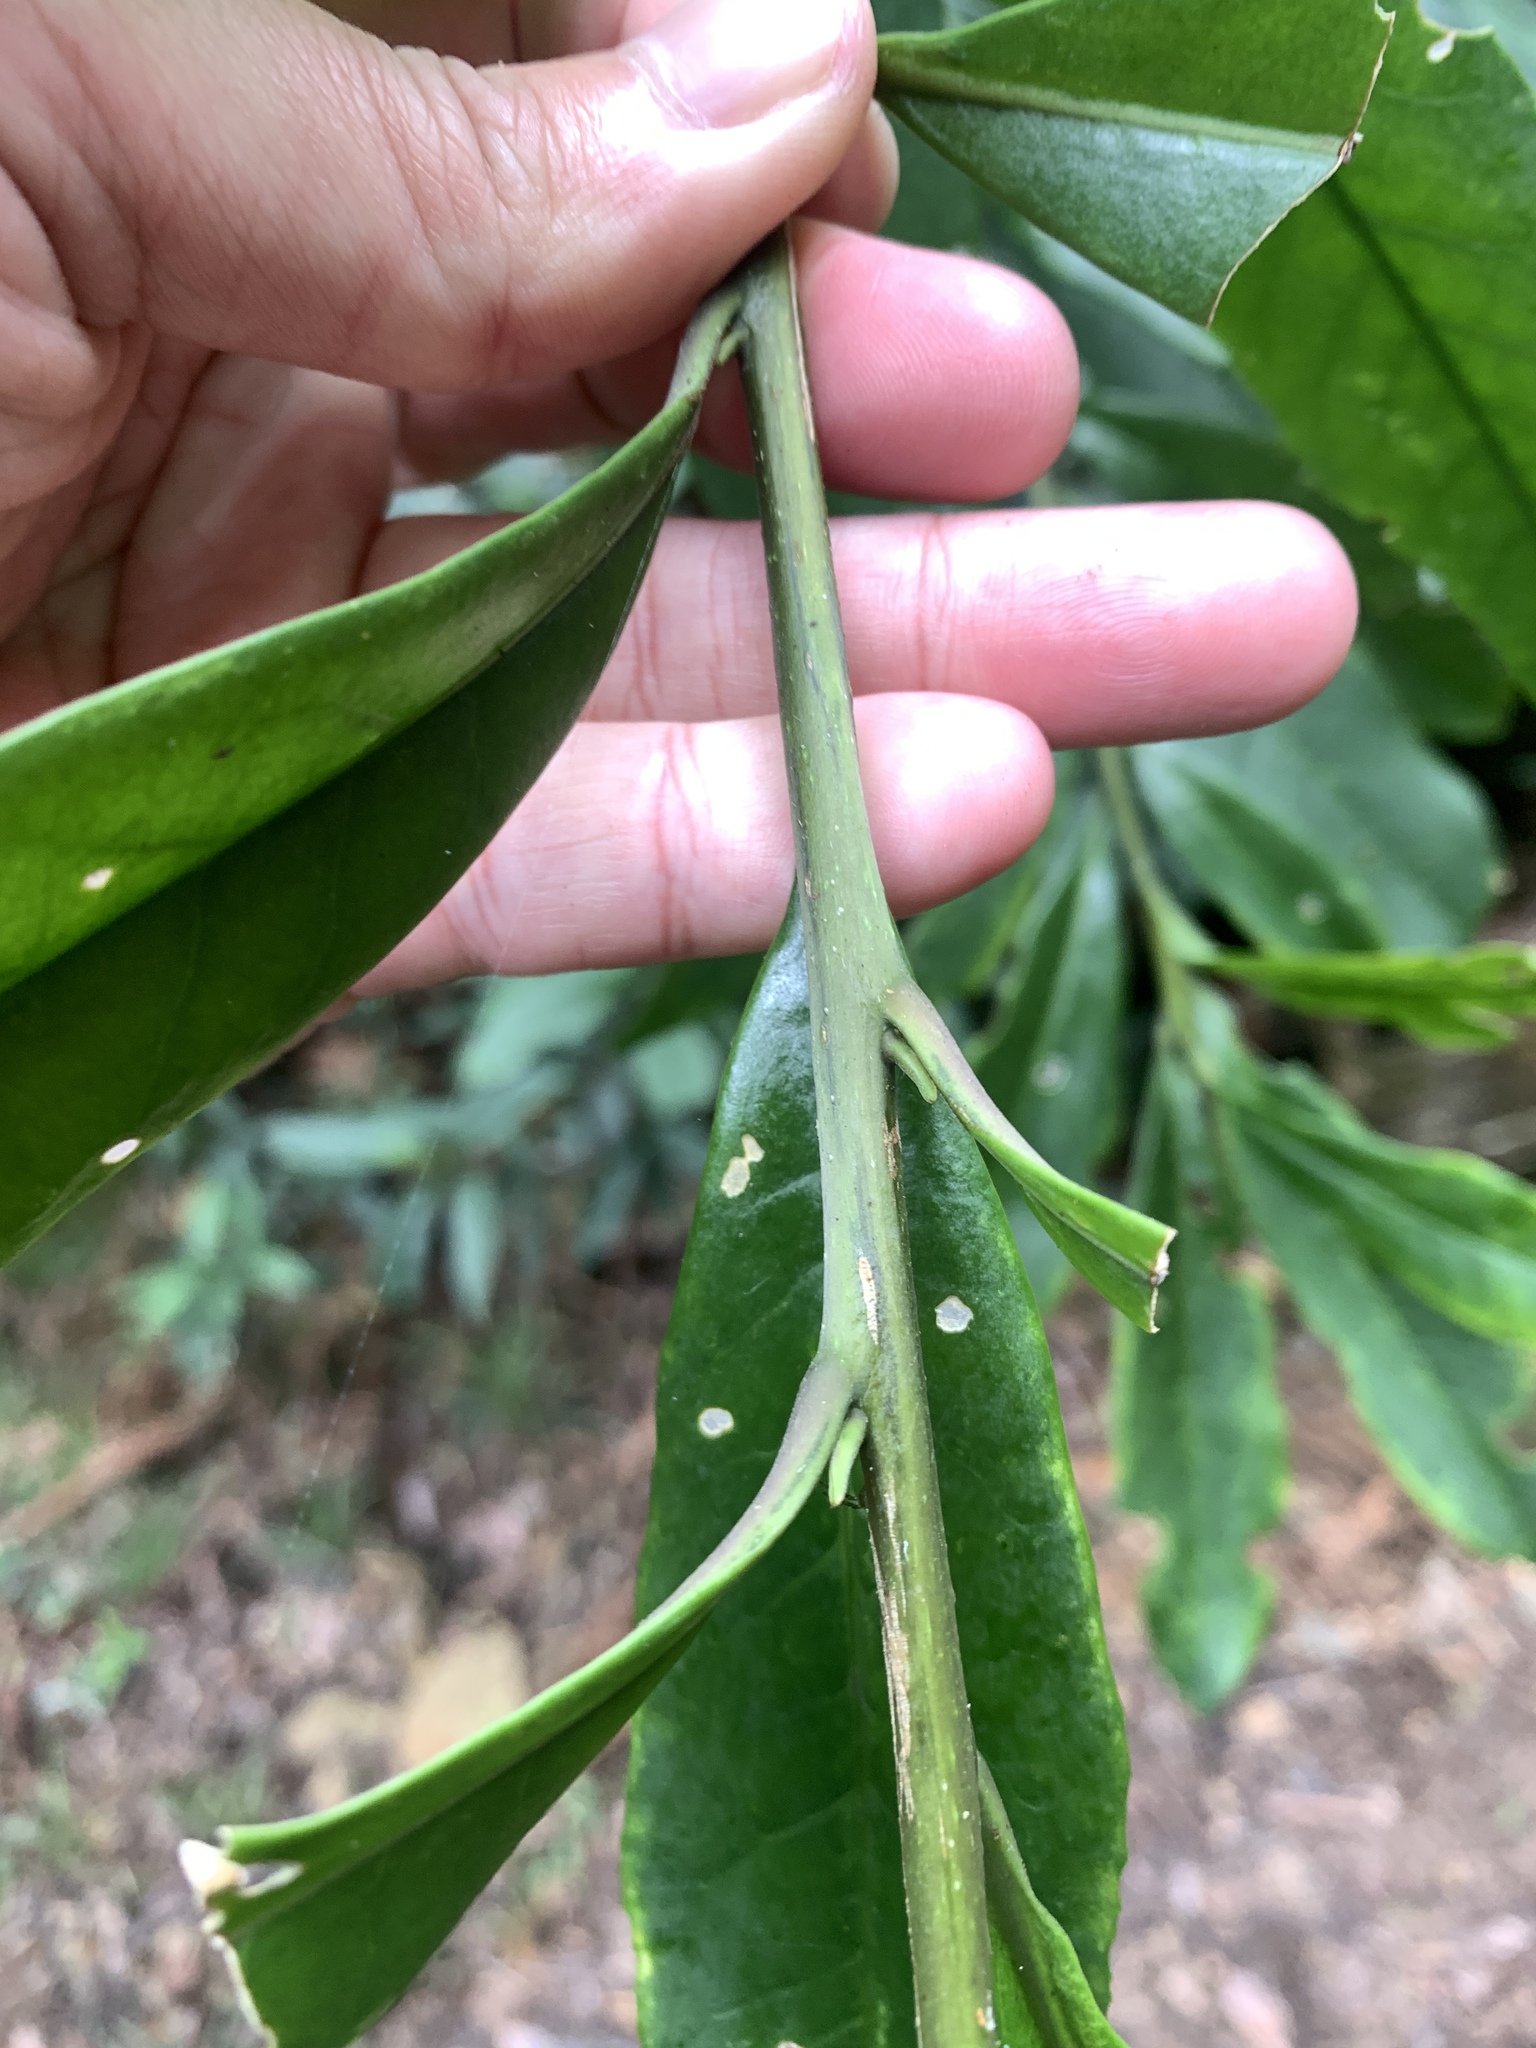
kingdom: Plantae
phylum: Tracheophyta
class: Magnoliopsida
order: Ericales
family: Pentaphylacaceae
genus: Eurya
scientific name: Eurya glaberrima
